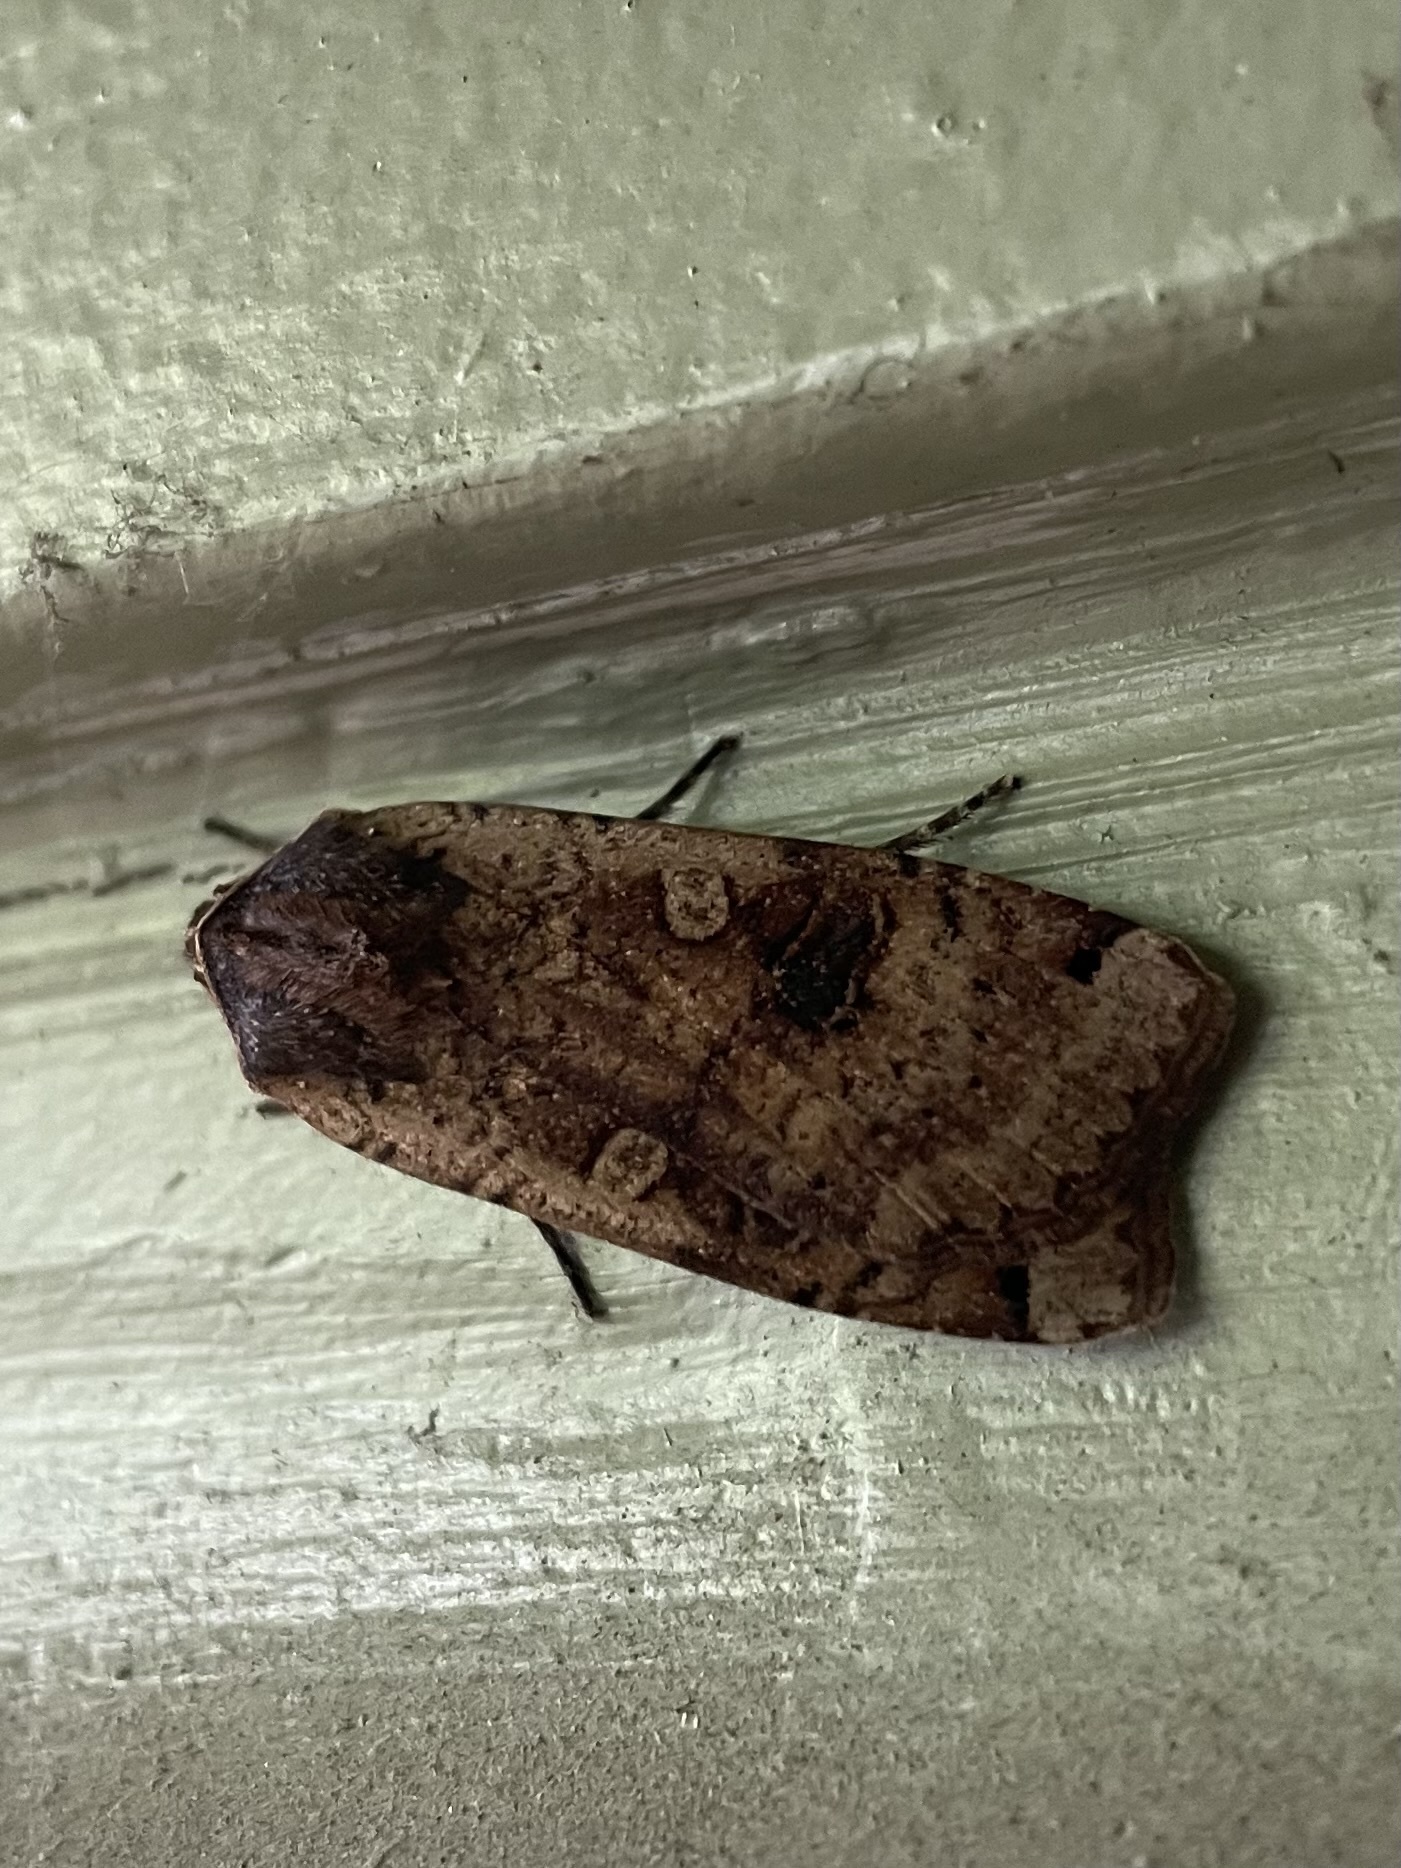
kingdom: Animalia
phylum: Arthropoda
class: Insecta
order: Lepidoptera
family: Noctuidae
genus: Noctua
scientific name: Noctua pronuba
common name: Large yellow underwing
